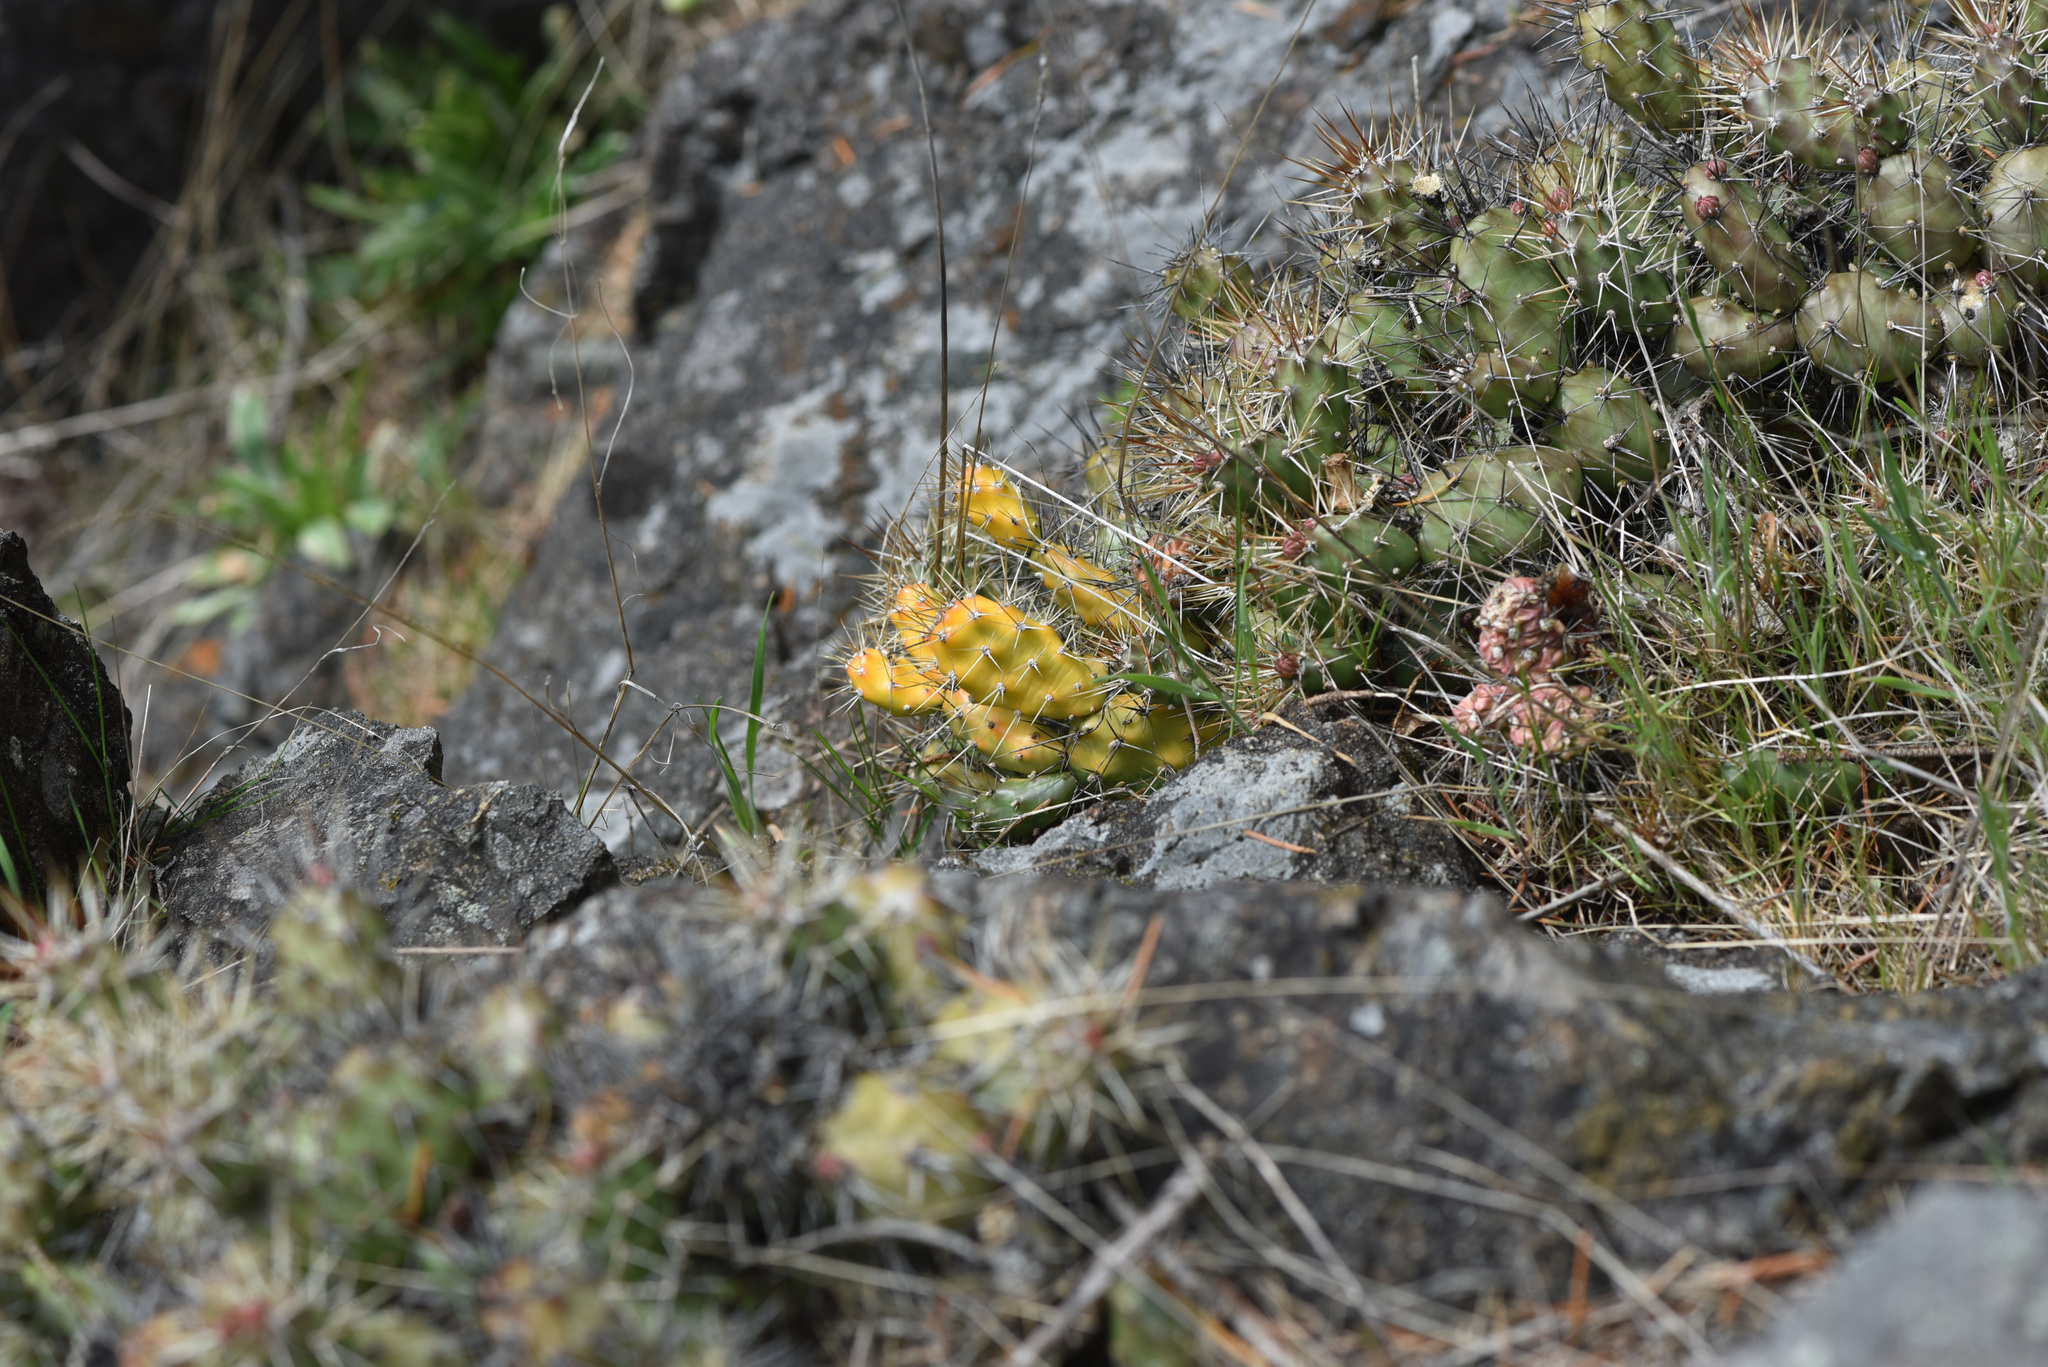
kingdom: Plantae
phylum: Tracheophyta
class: Magnoliopsida
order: Caryophyllales
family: Cactaceae
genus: Opuntia
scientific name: Opuntia fragilis
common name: Brittle cactus
